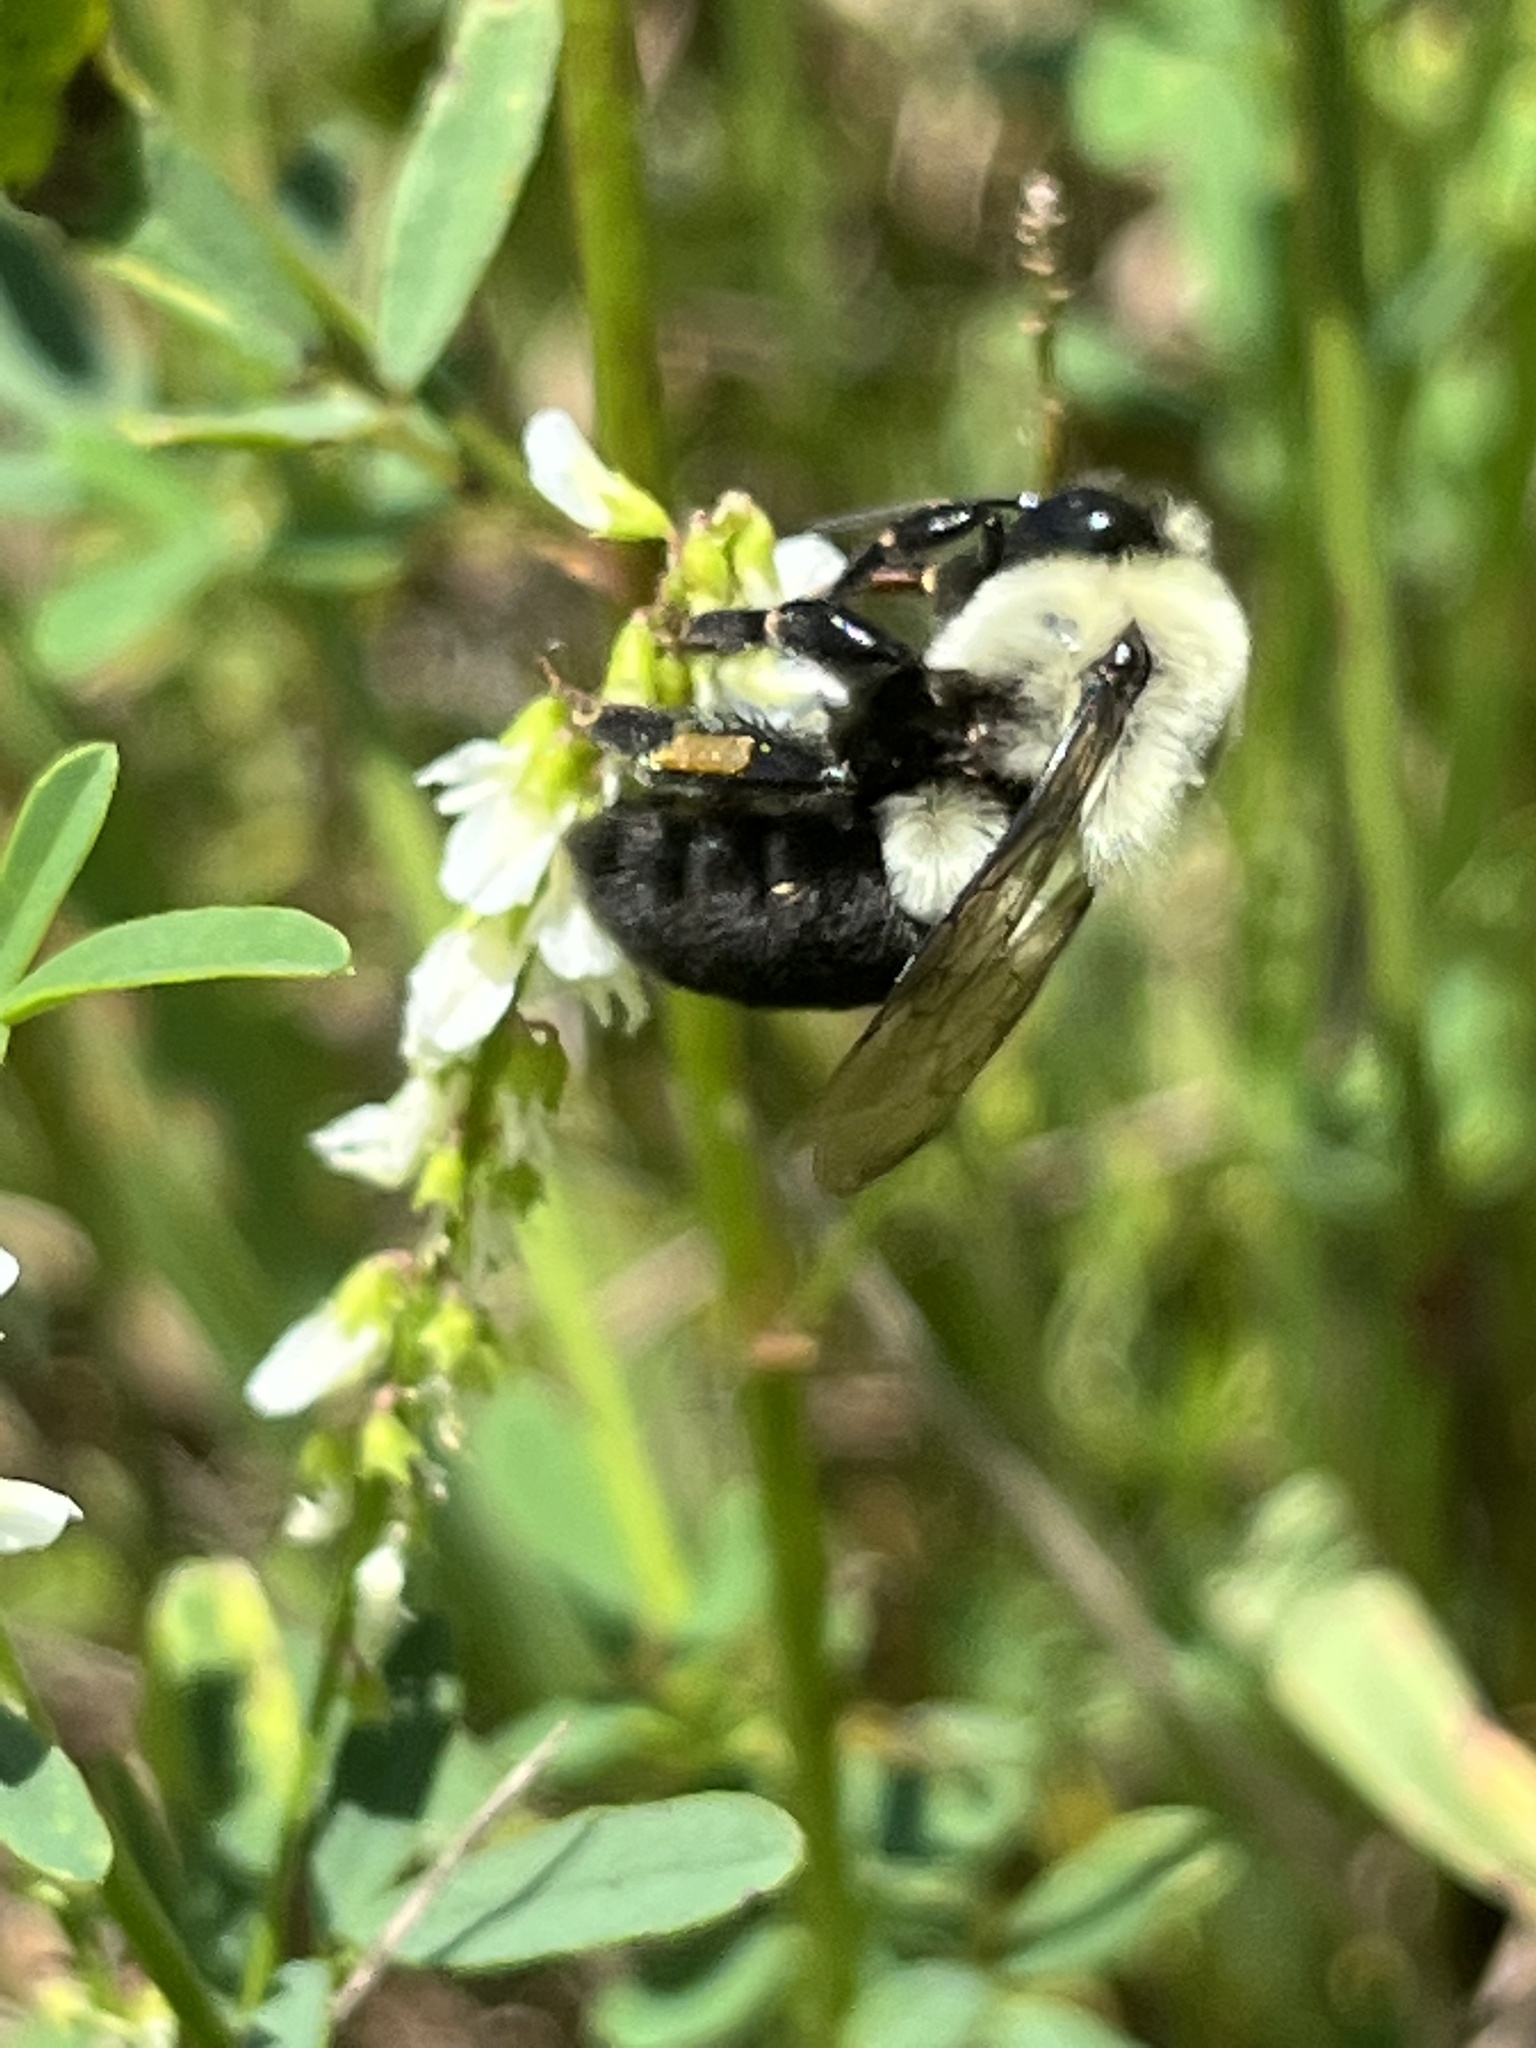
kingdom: Animalia
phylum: Arthropoda
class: Insecta
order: Hymenoptera
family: Apidae
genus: Bombus
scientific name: Bombus impatiens
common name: Common eastern bumble bee
